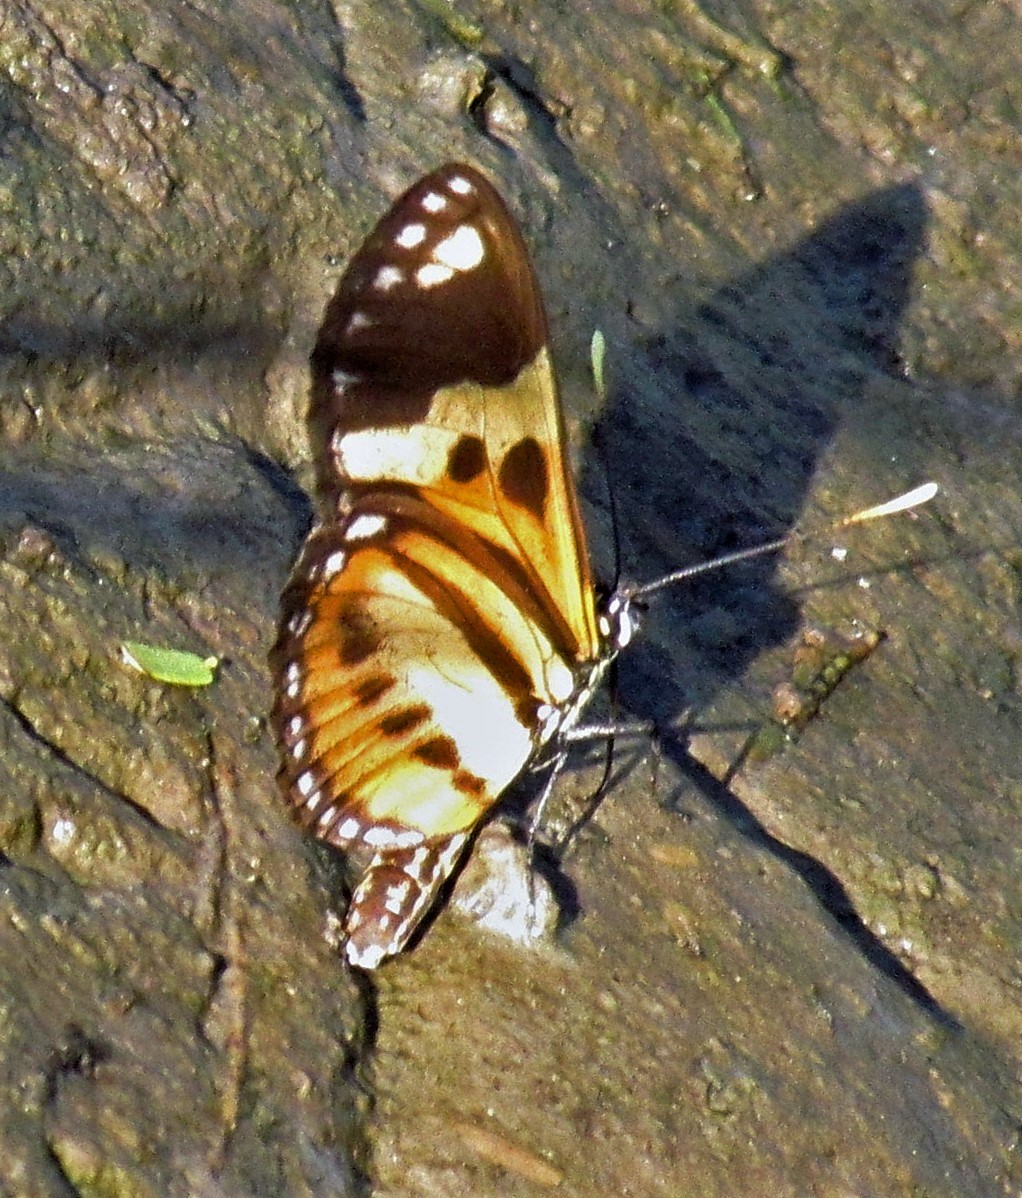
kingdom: Animalia
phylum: Arthropoda
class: Insecta
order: Lepidoptera
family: Nymphalidae
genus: Eueides
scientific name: Eueides isabella
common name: Isabella's longwing
